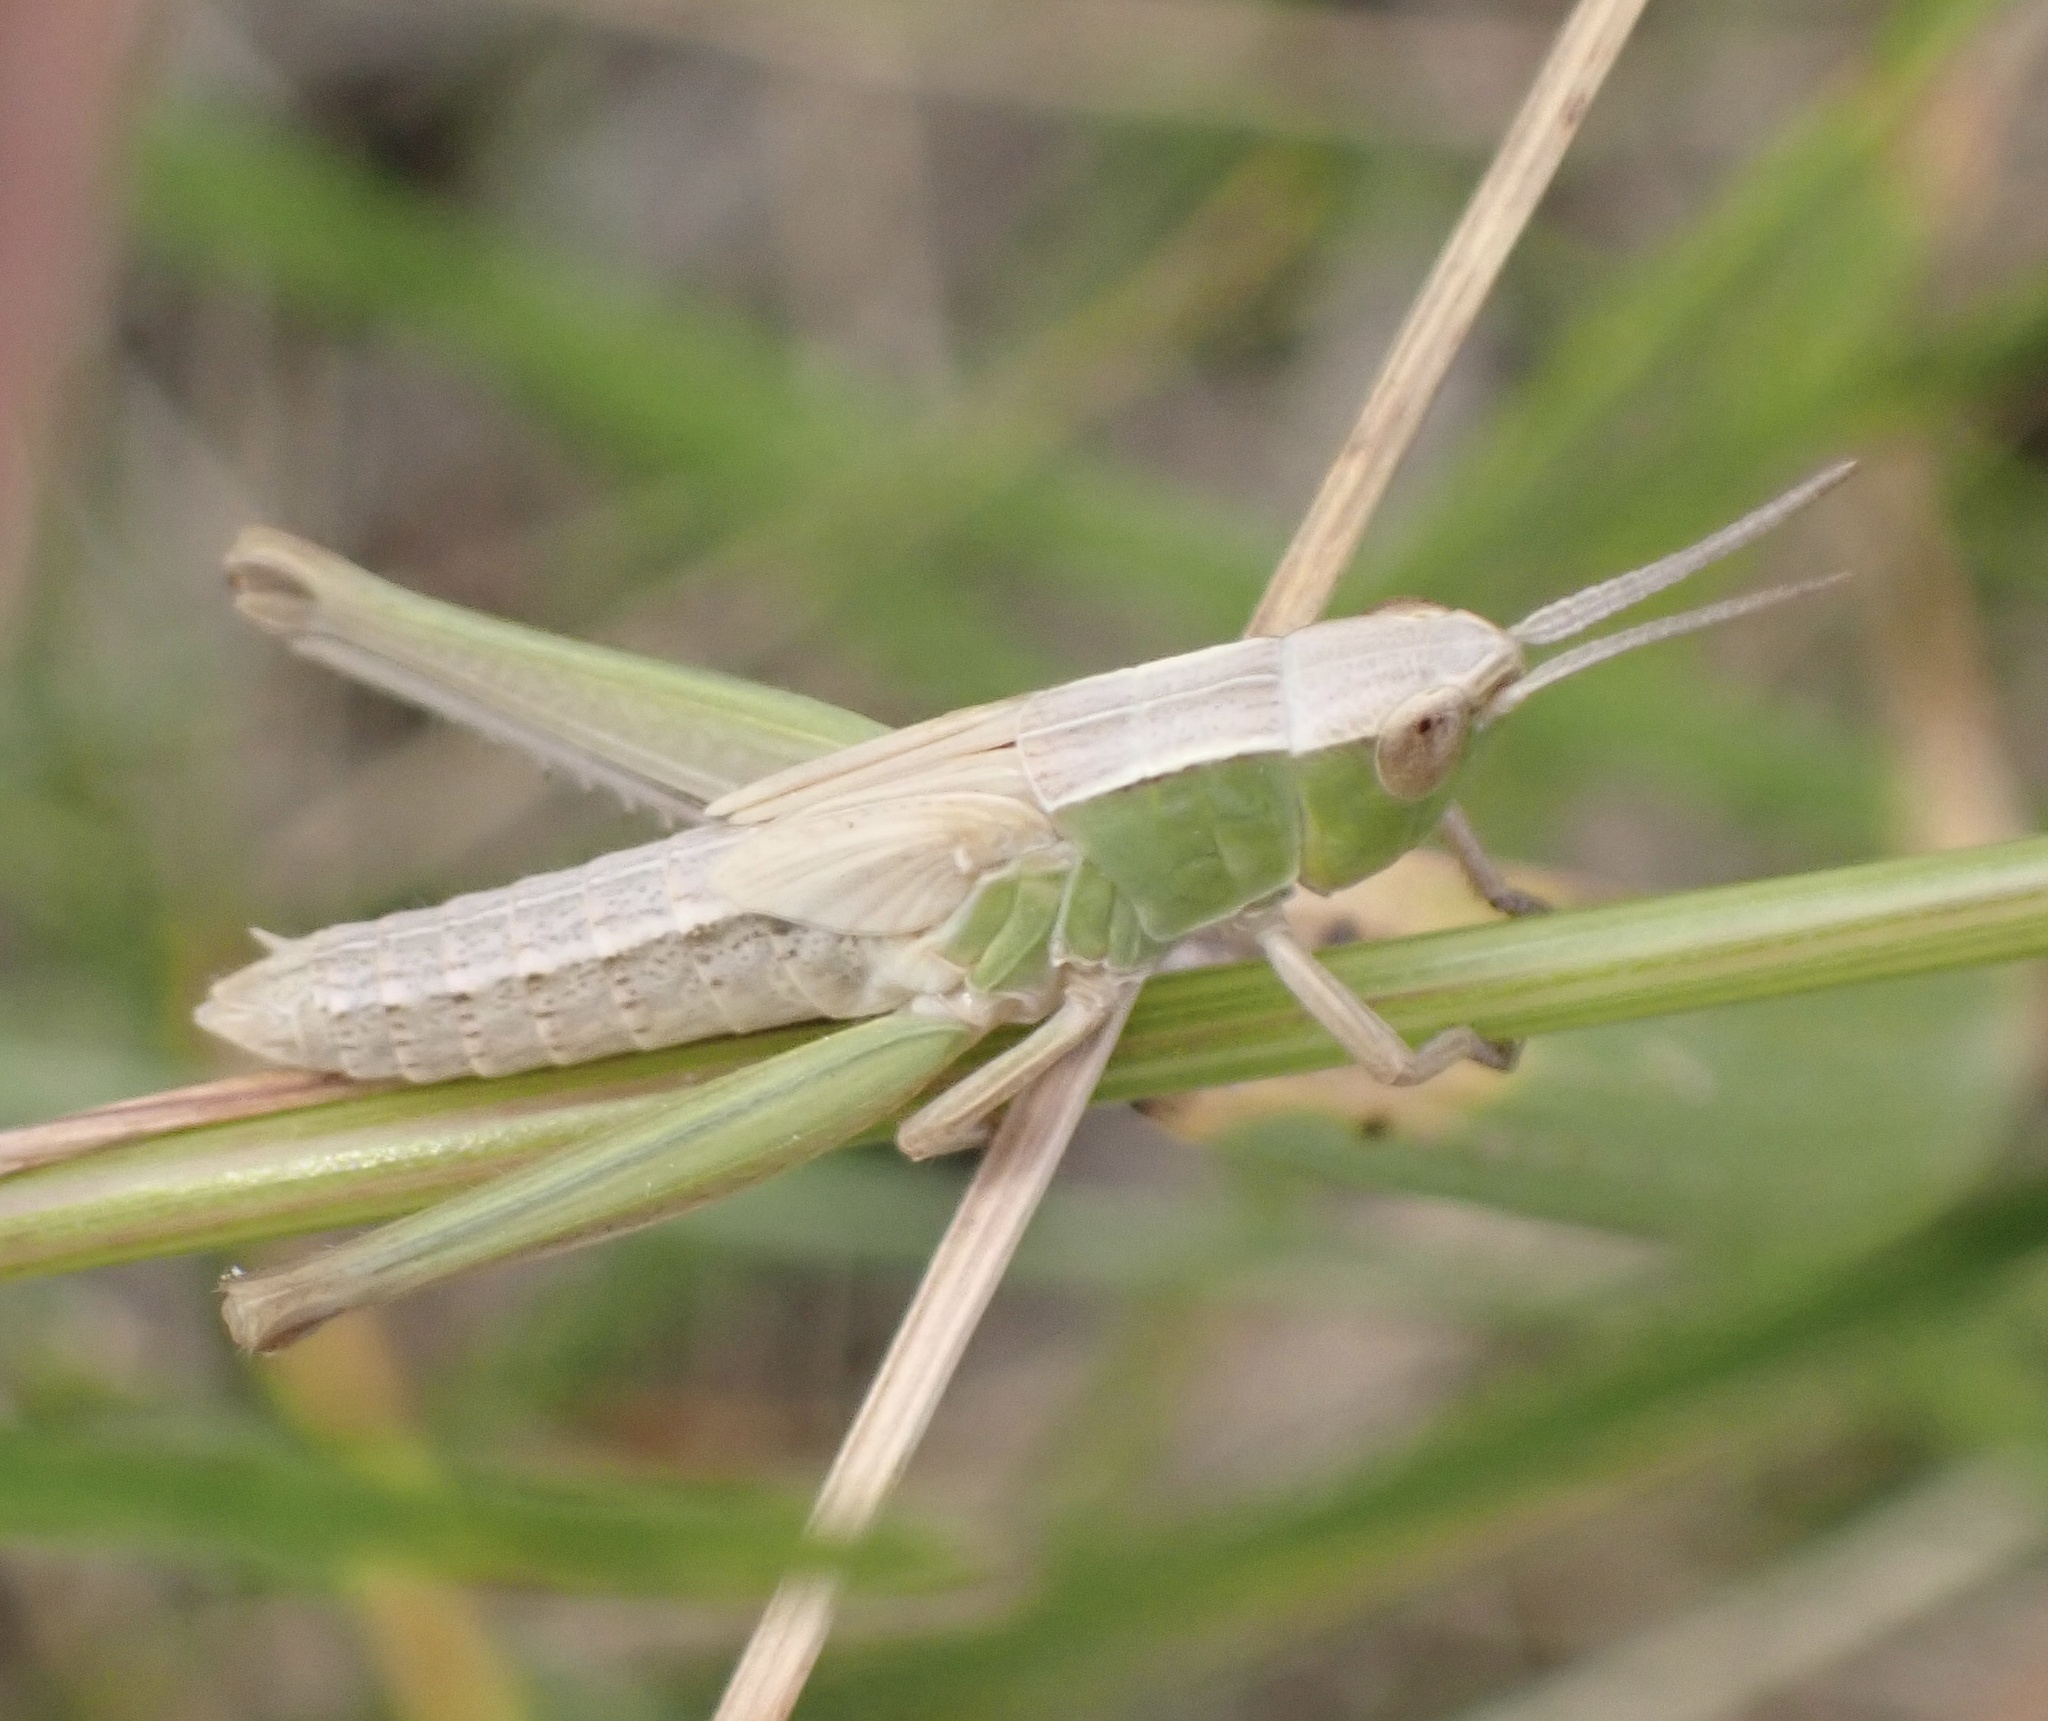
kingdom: Animalia
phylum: Arthropoda
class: Insecta
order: Orthoptera
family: Acrididae
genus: Chorthippus
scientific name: Chorthippus albomarginatus
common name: Lesser marsh grasshopper
